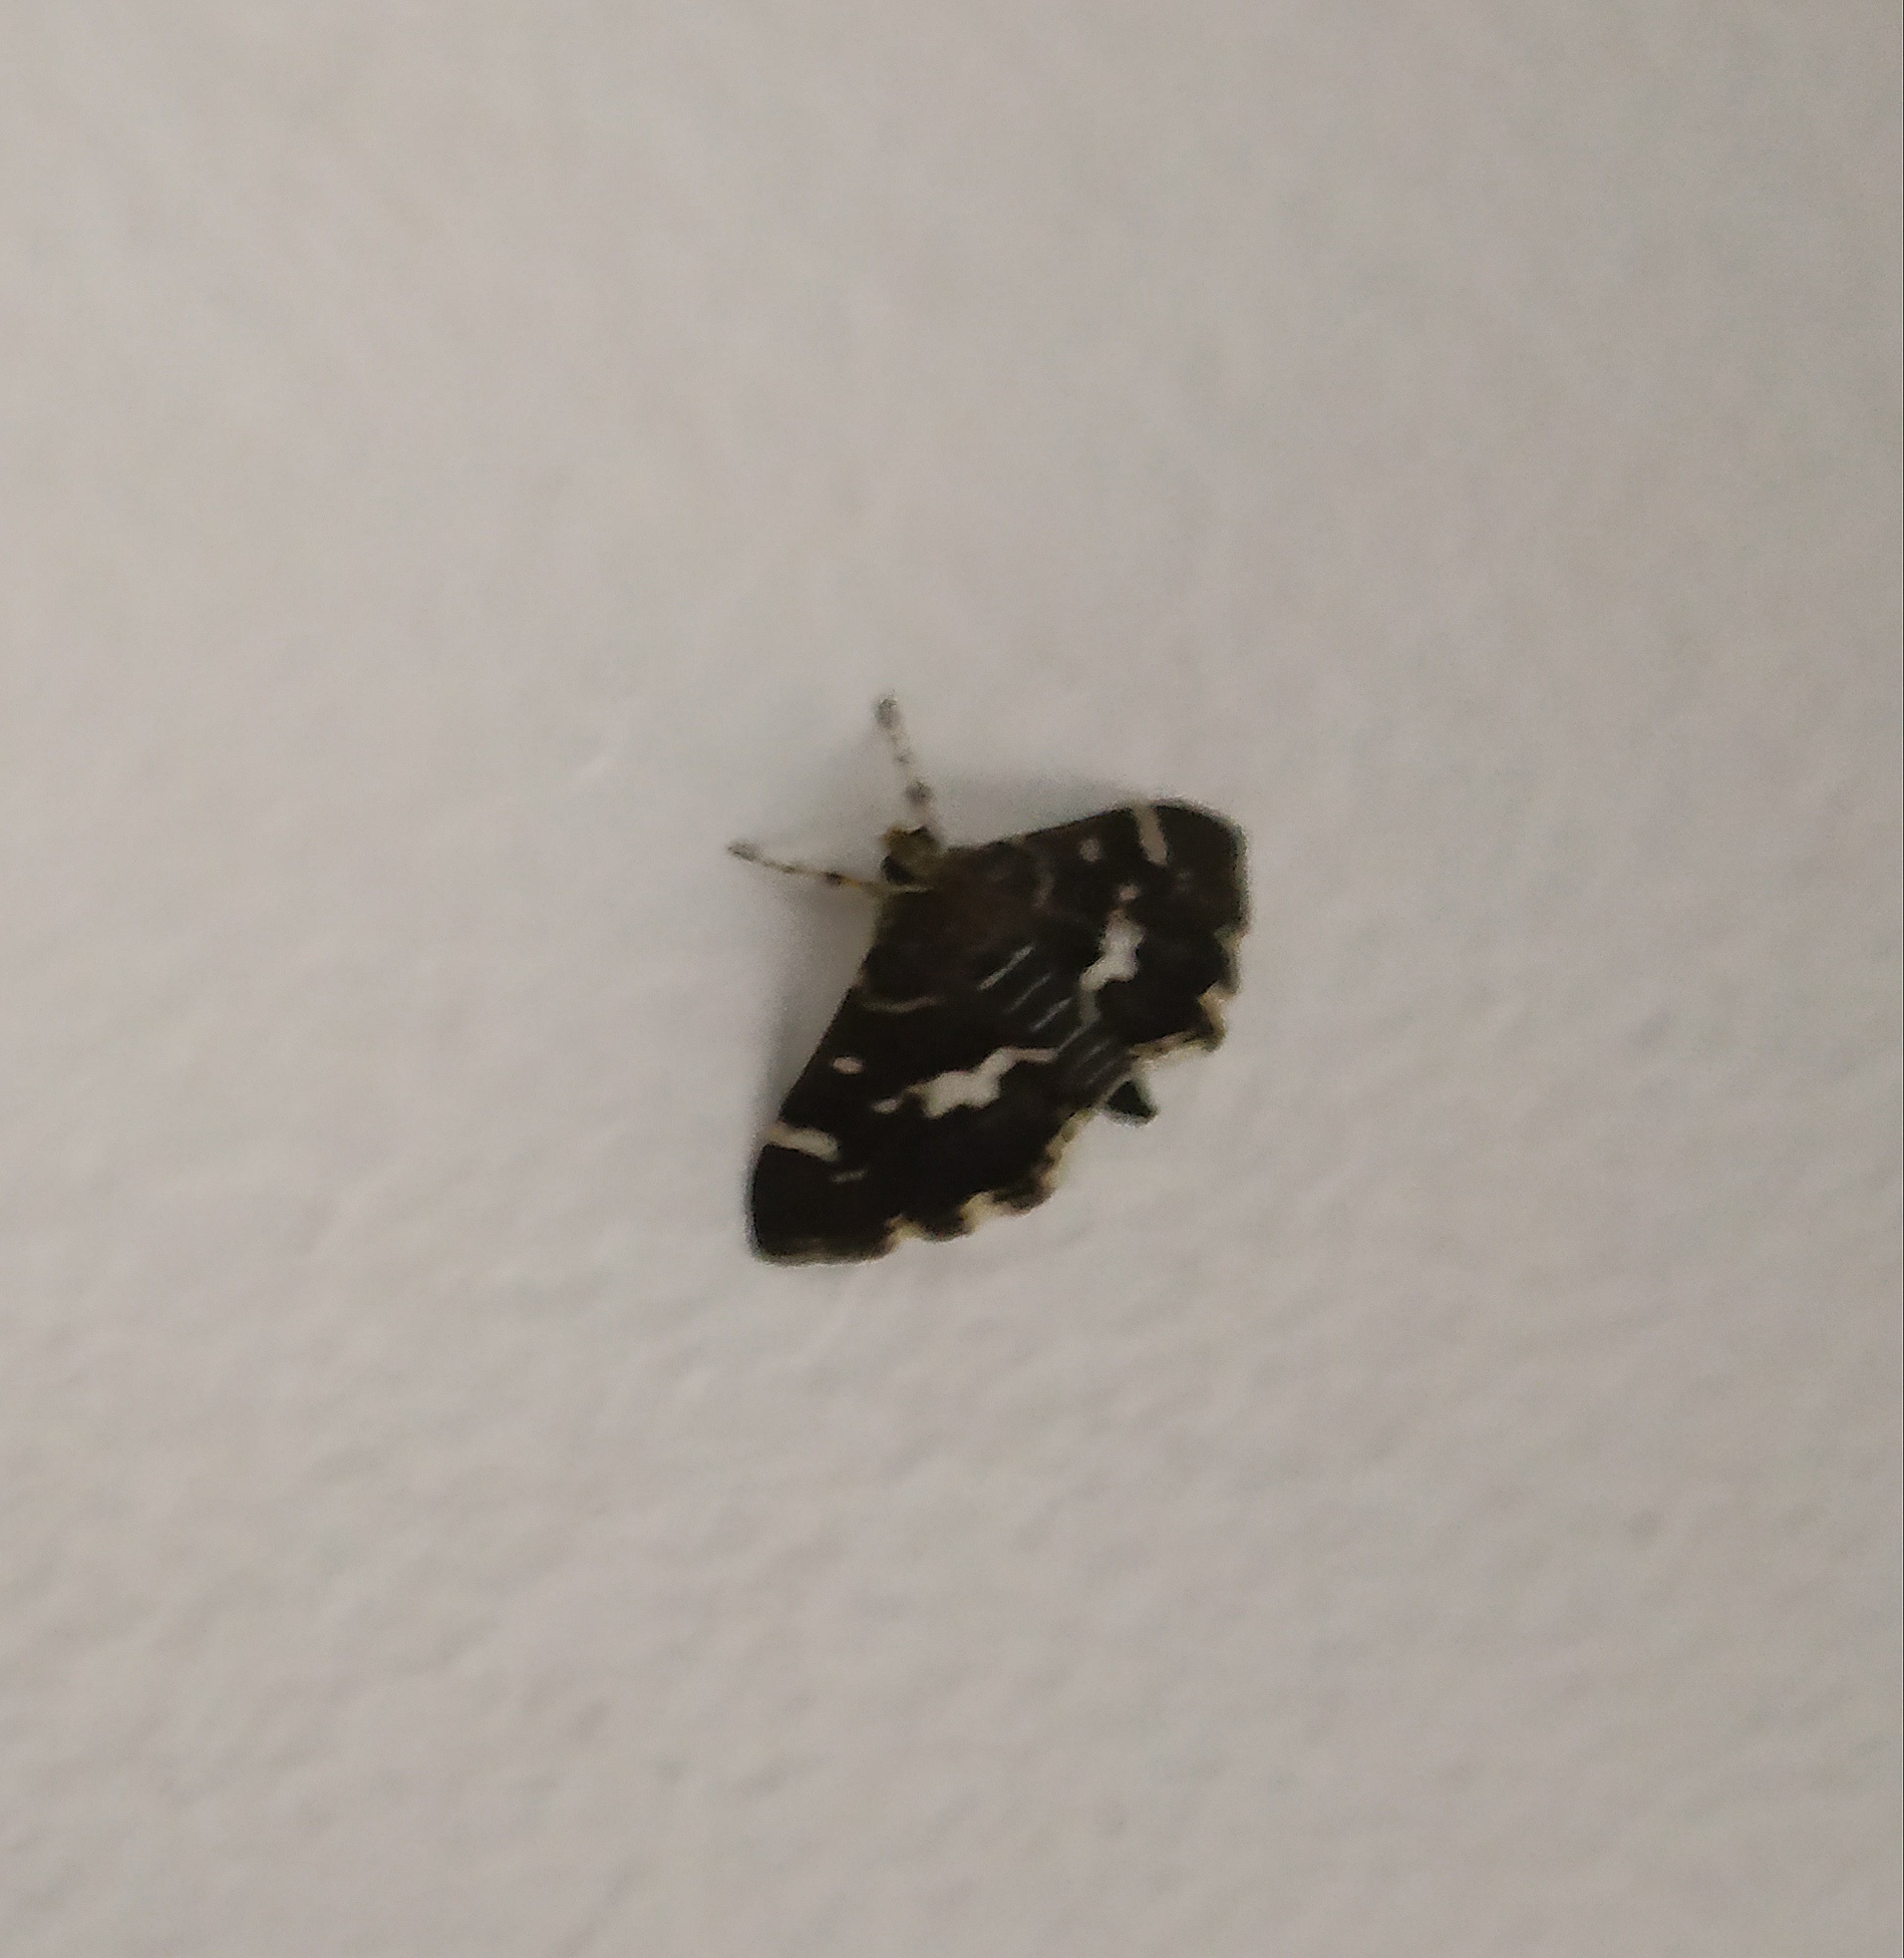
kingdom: Animalia
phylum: Arthropoda
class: Insecta
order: Lepidoptera
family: Crambidae
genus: Hymenia
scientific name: Hymenia perspectalis
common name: Spotted beet webworm
